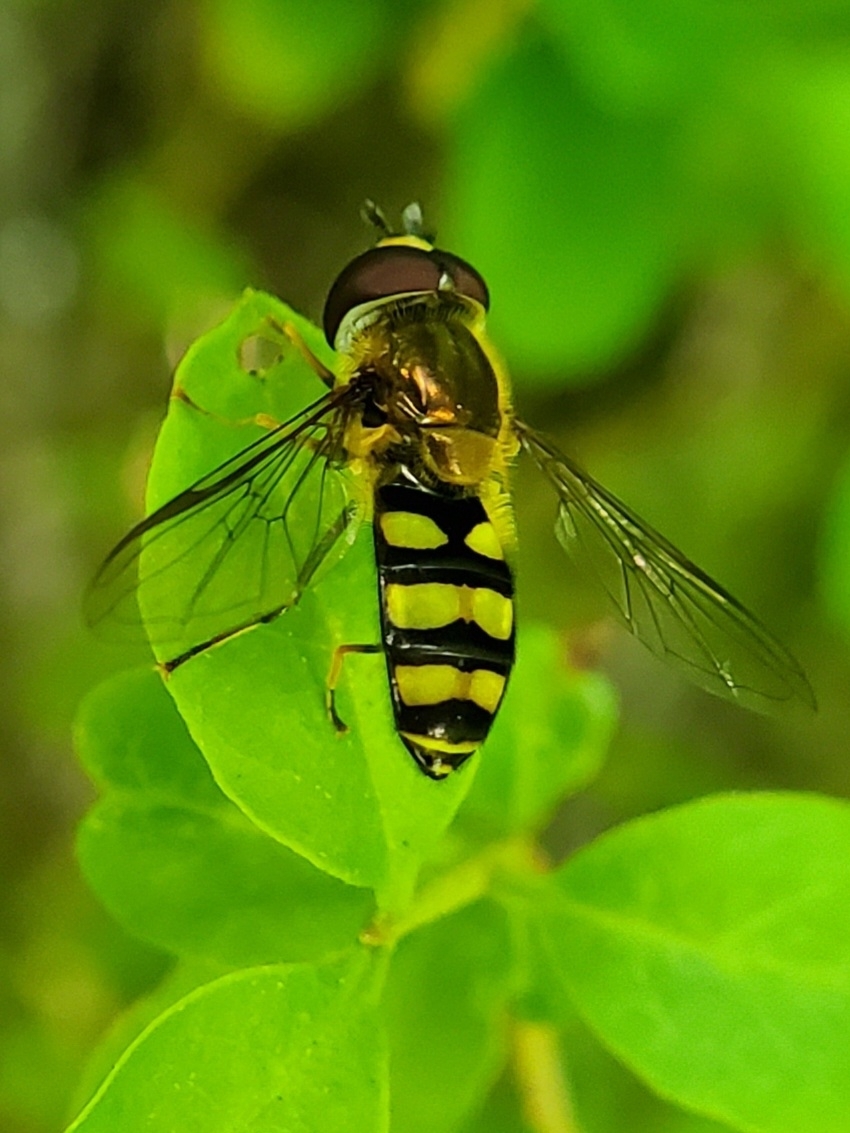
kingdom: Animalia
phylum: Arthropoda
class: Insecta
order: Diptera
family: Syrphidae
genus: Eupeodes
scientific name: Eupeodes
